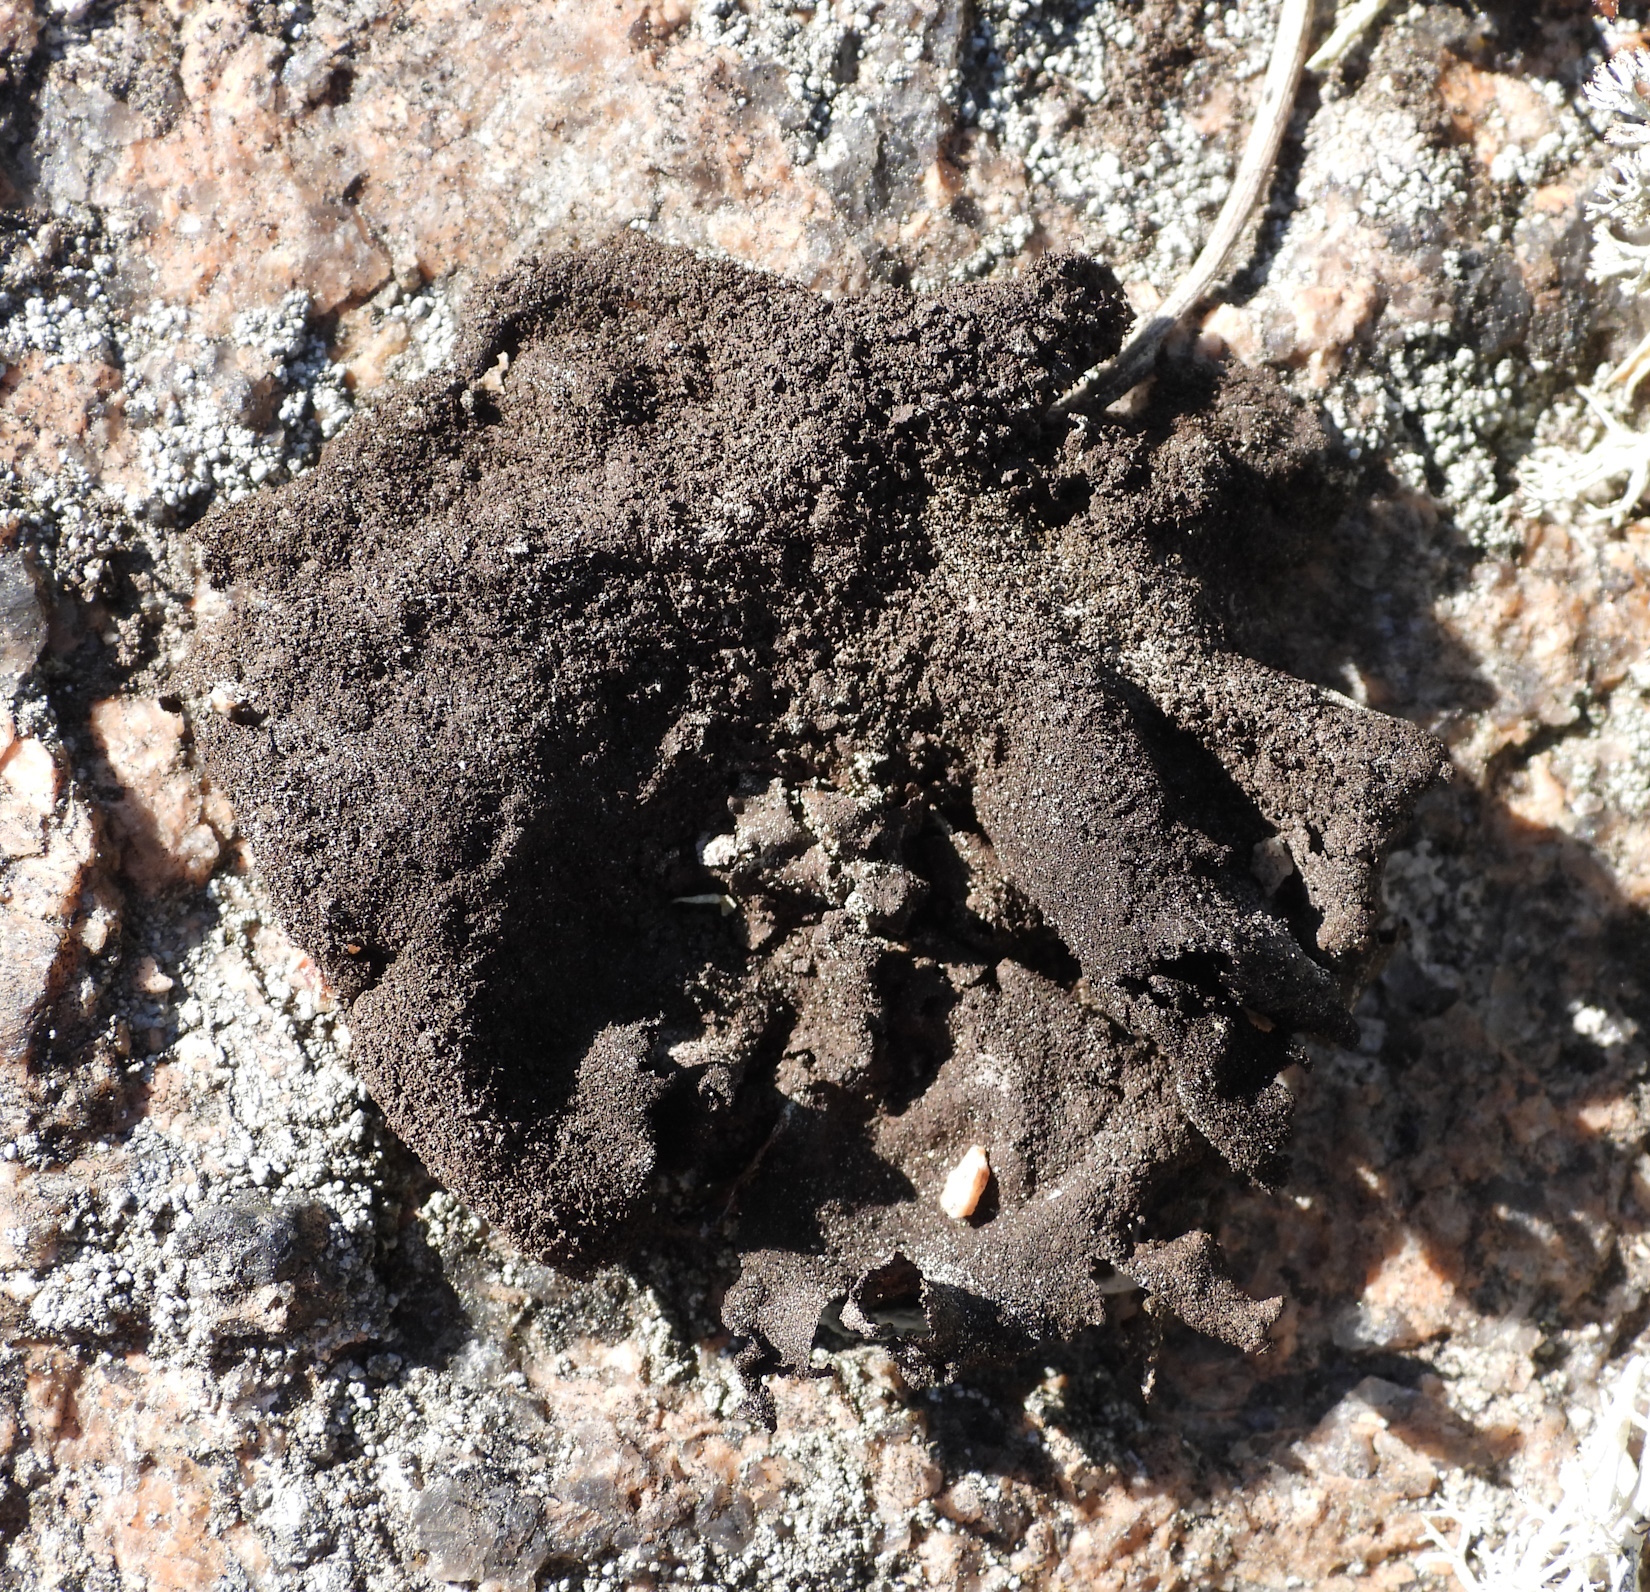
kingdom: Fungi
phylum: Ascomycota
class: Lecanoromycetes
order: Umbilicariales
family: Umbilicariaceae
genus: Umbilicaria
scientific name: Umbilicaria deusta
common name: Peppered rock tripe
